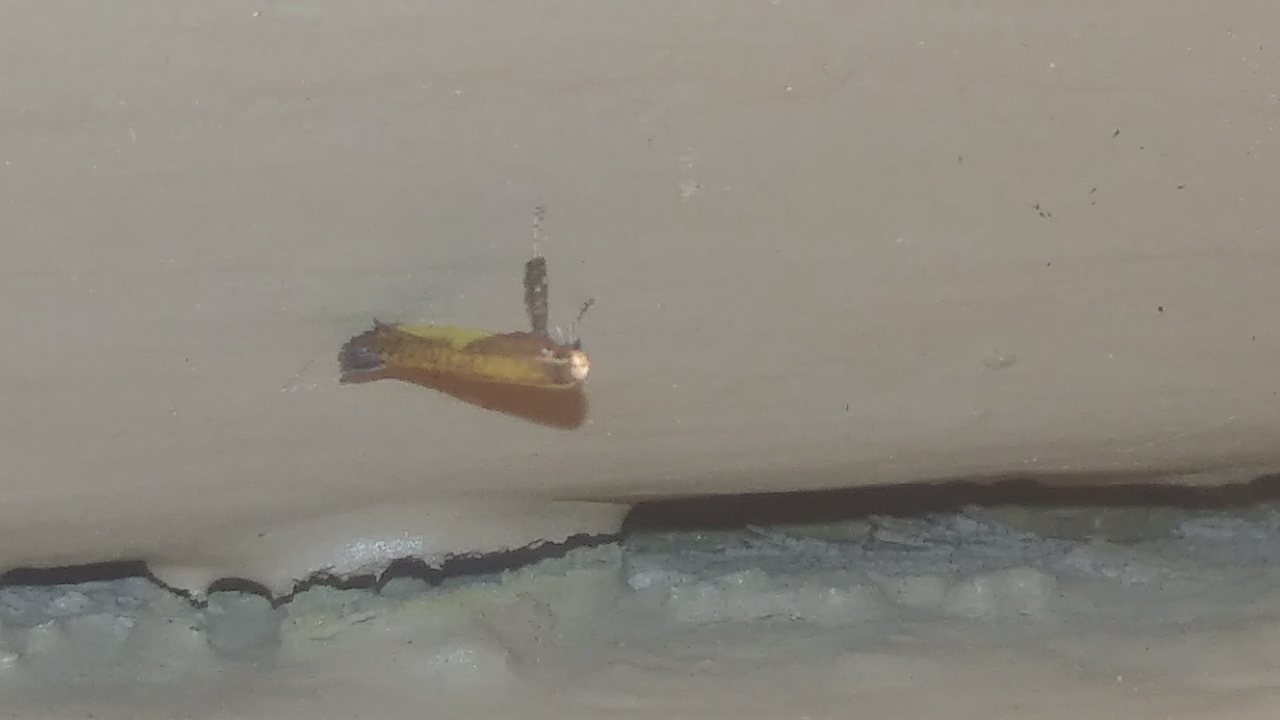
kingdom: Animalia
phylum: Arthropoda
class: Insecta
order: Lepidoptera
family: Gracillariidae
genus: Caloptilia
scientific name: Caloptilia azaleella
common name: Azalea leafminer
